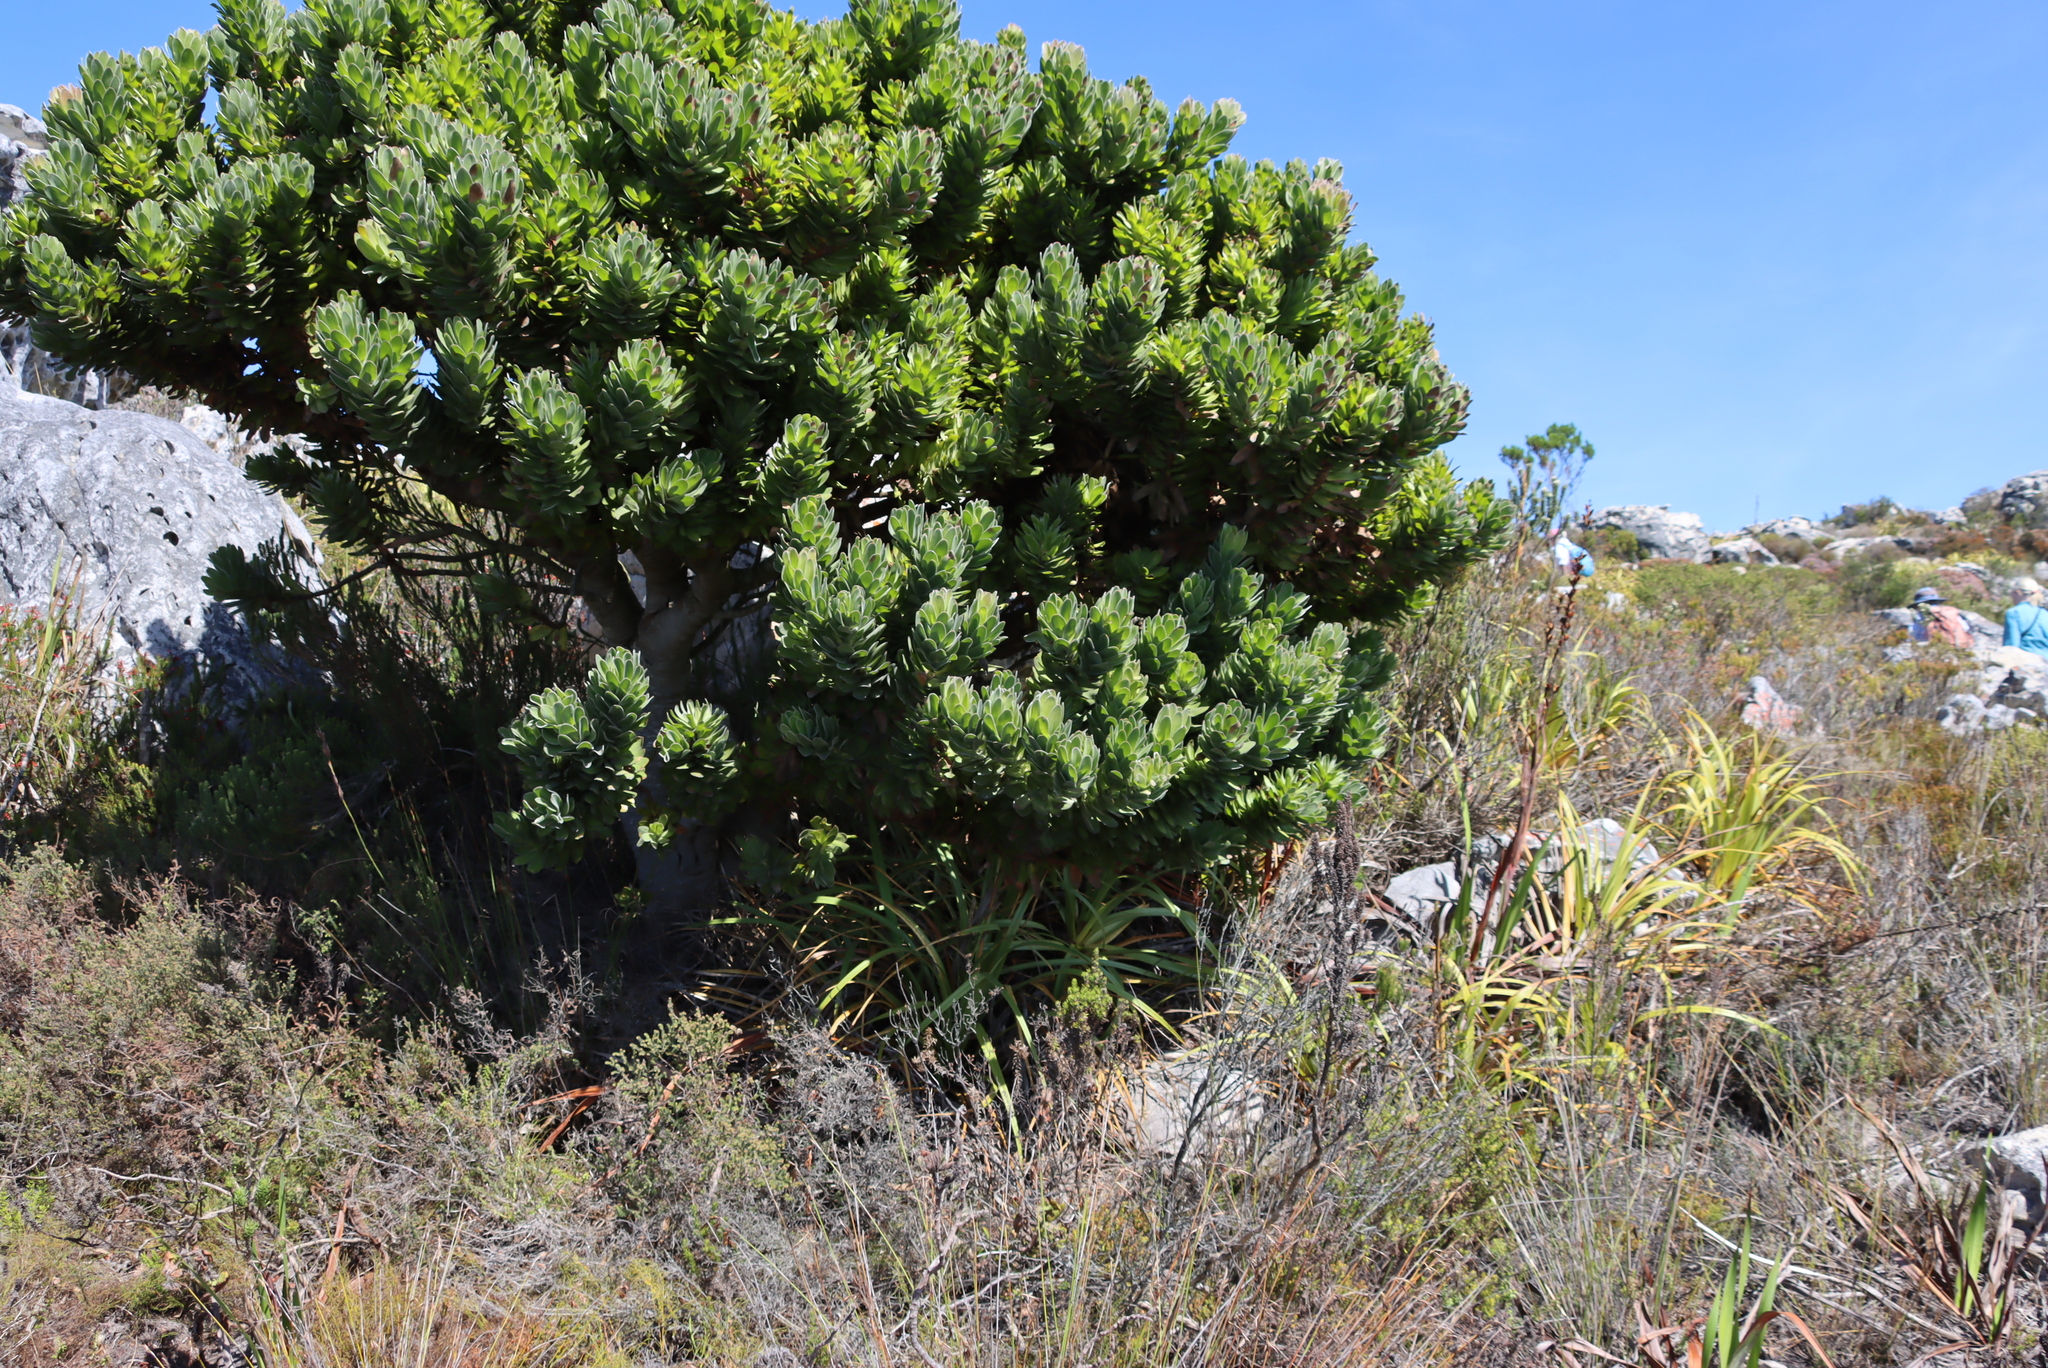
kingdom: Plantae
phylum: Tracheophyta
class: Magnoliopsida
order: Proteales
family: Proteaceae
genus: Mimetes
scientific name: Mimetes fimbriifolius
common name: Fringed bottlebrush
